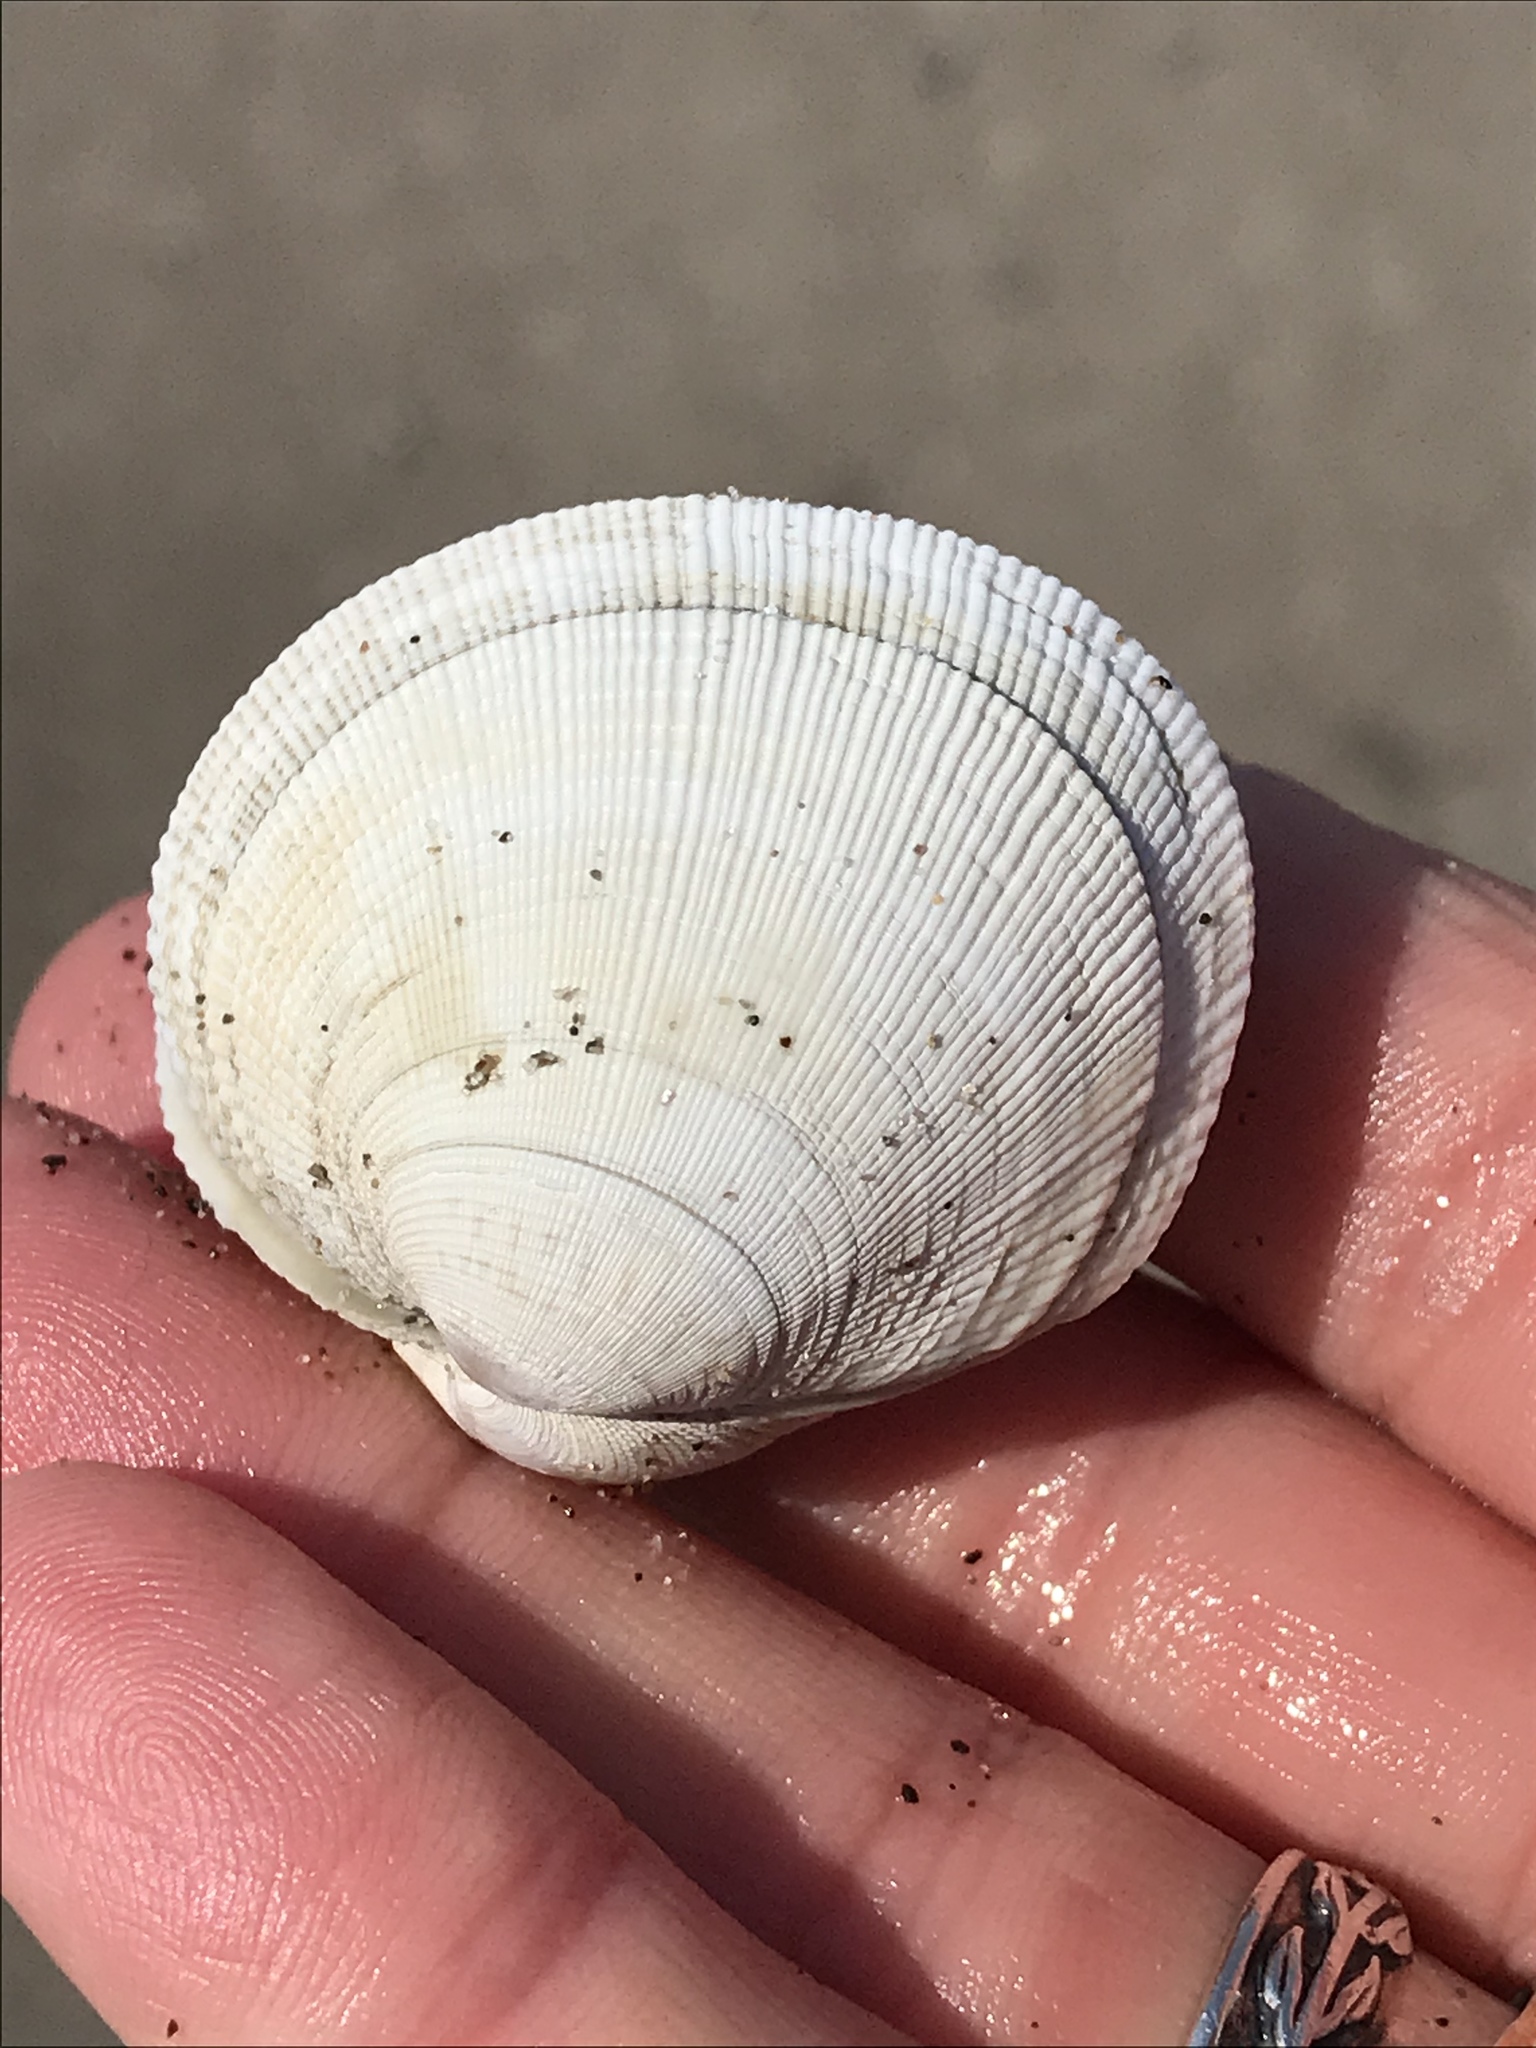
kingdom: Animalia
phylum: Mollusca
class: Bivalvia
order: Venerida
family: Veneridae
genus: Leukoma
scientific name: Leukoma staminea
